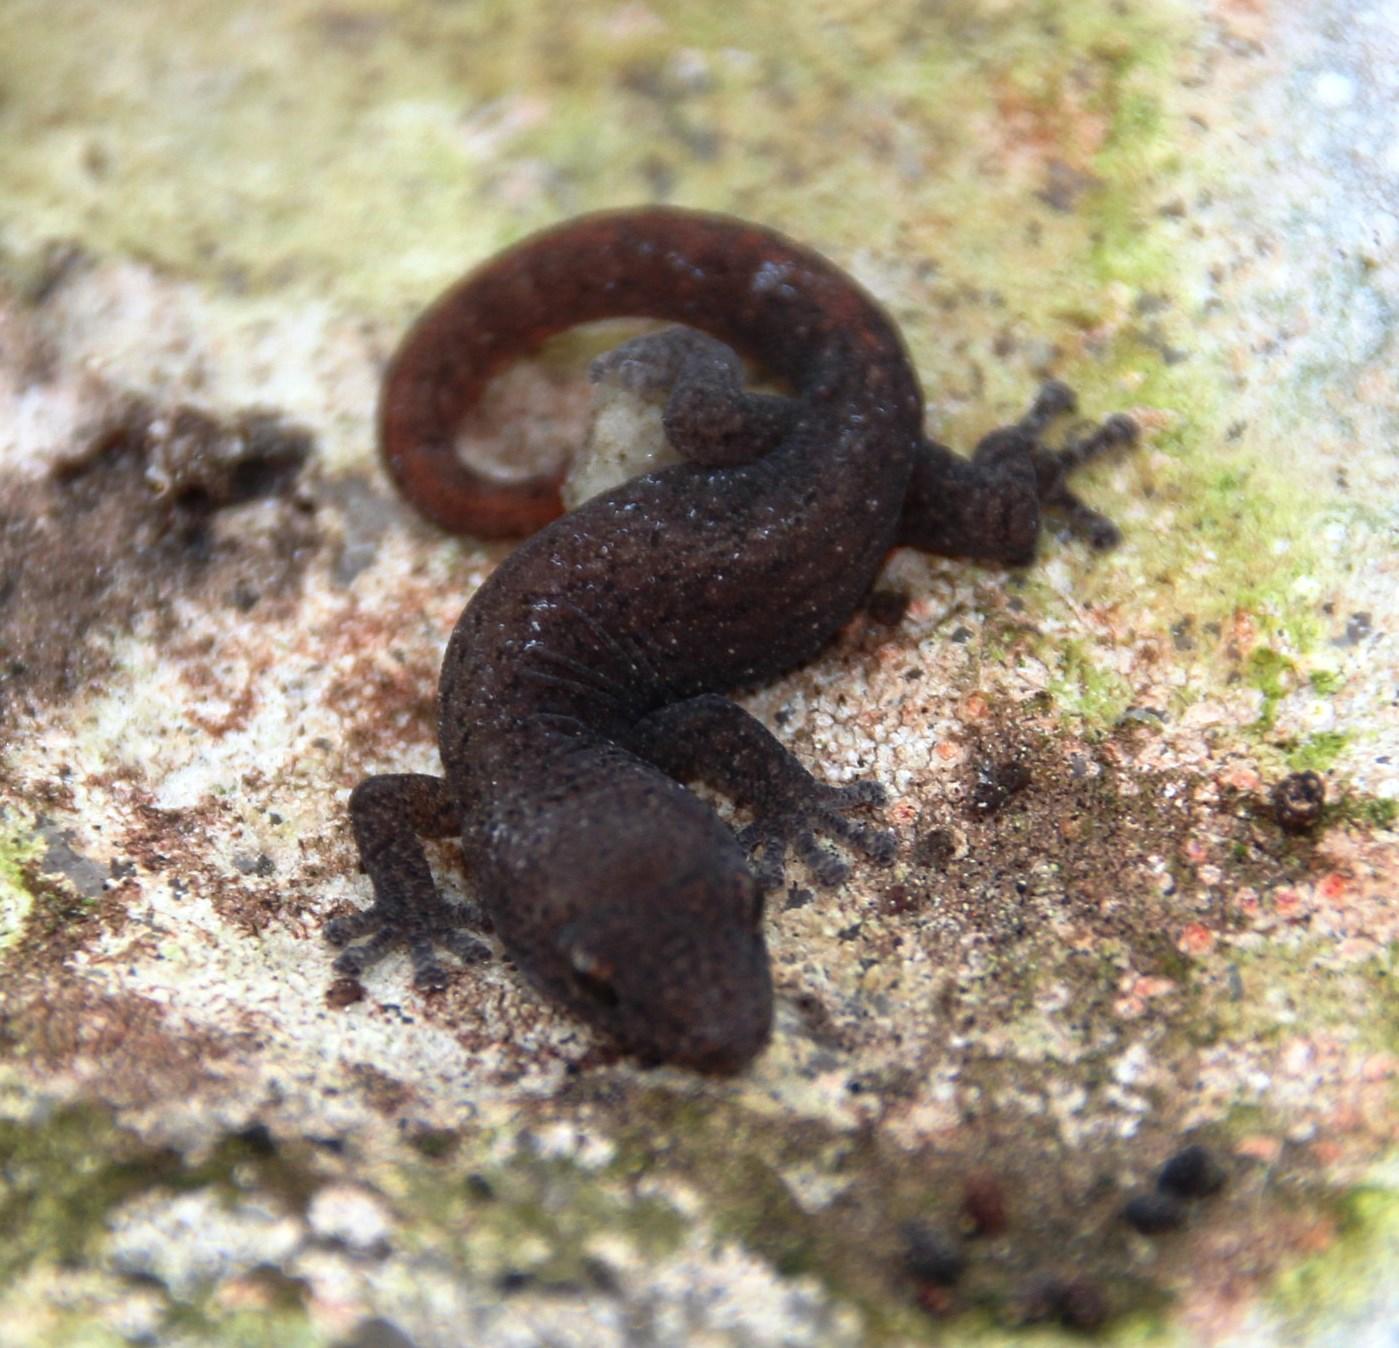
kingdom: Animalia
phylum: Chordata
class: Squamata
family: Gekkonidae
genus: Afrogecko
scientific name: Afrogecko porphyreus
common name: Marbled leaf-toed gecko
